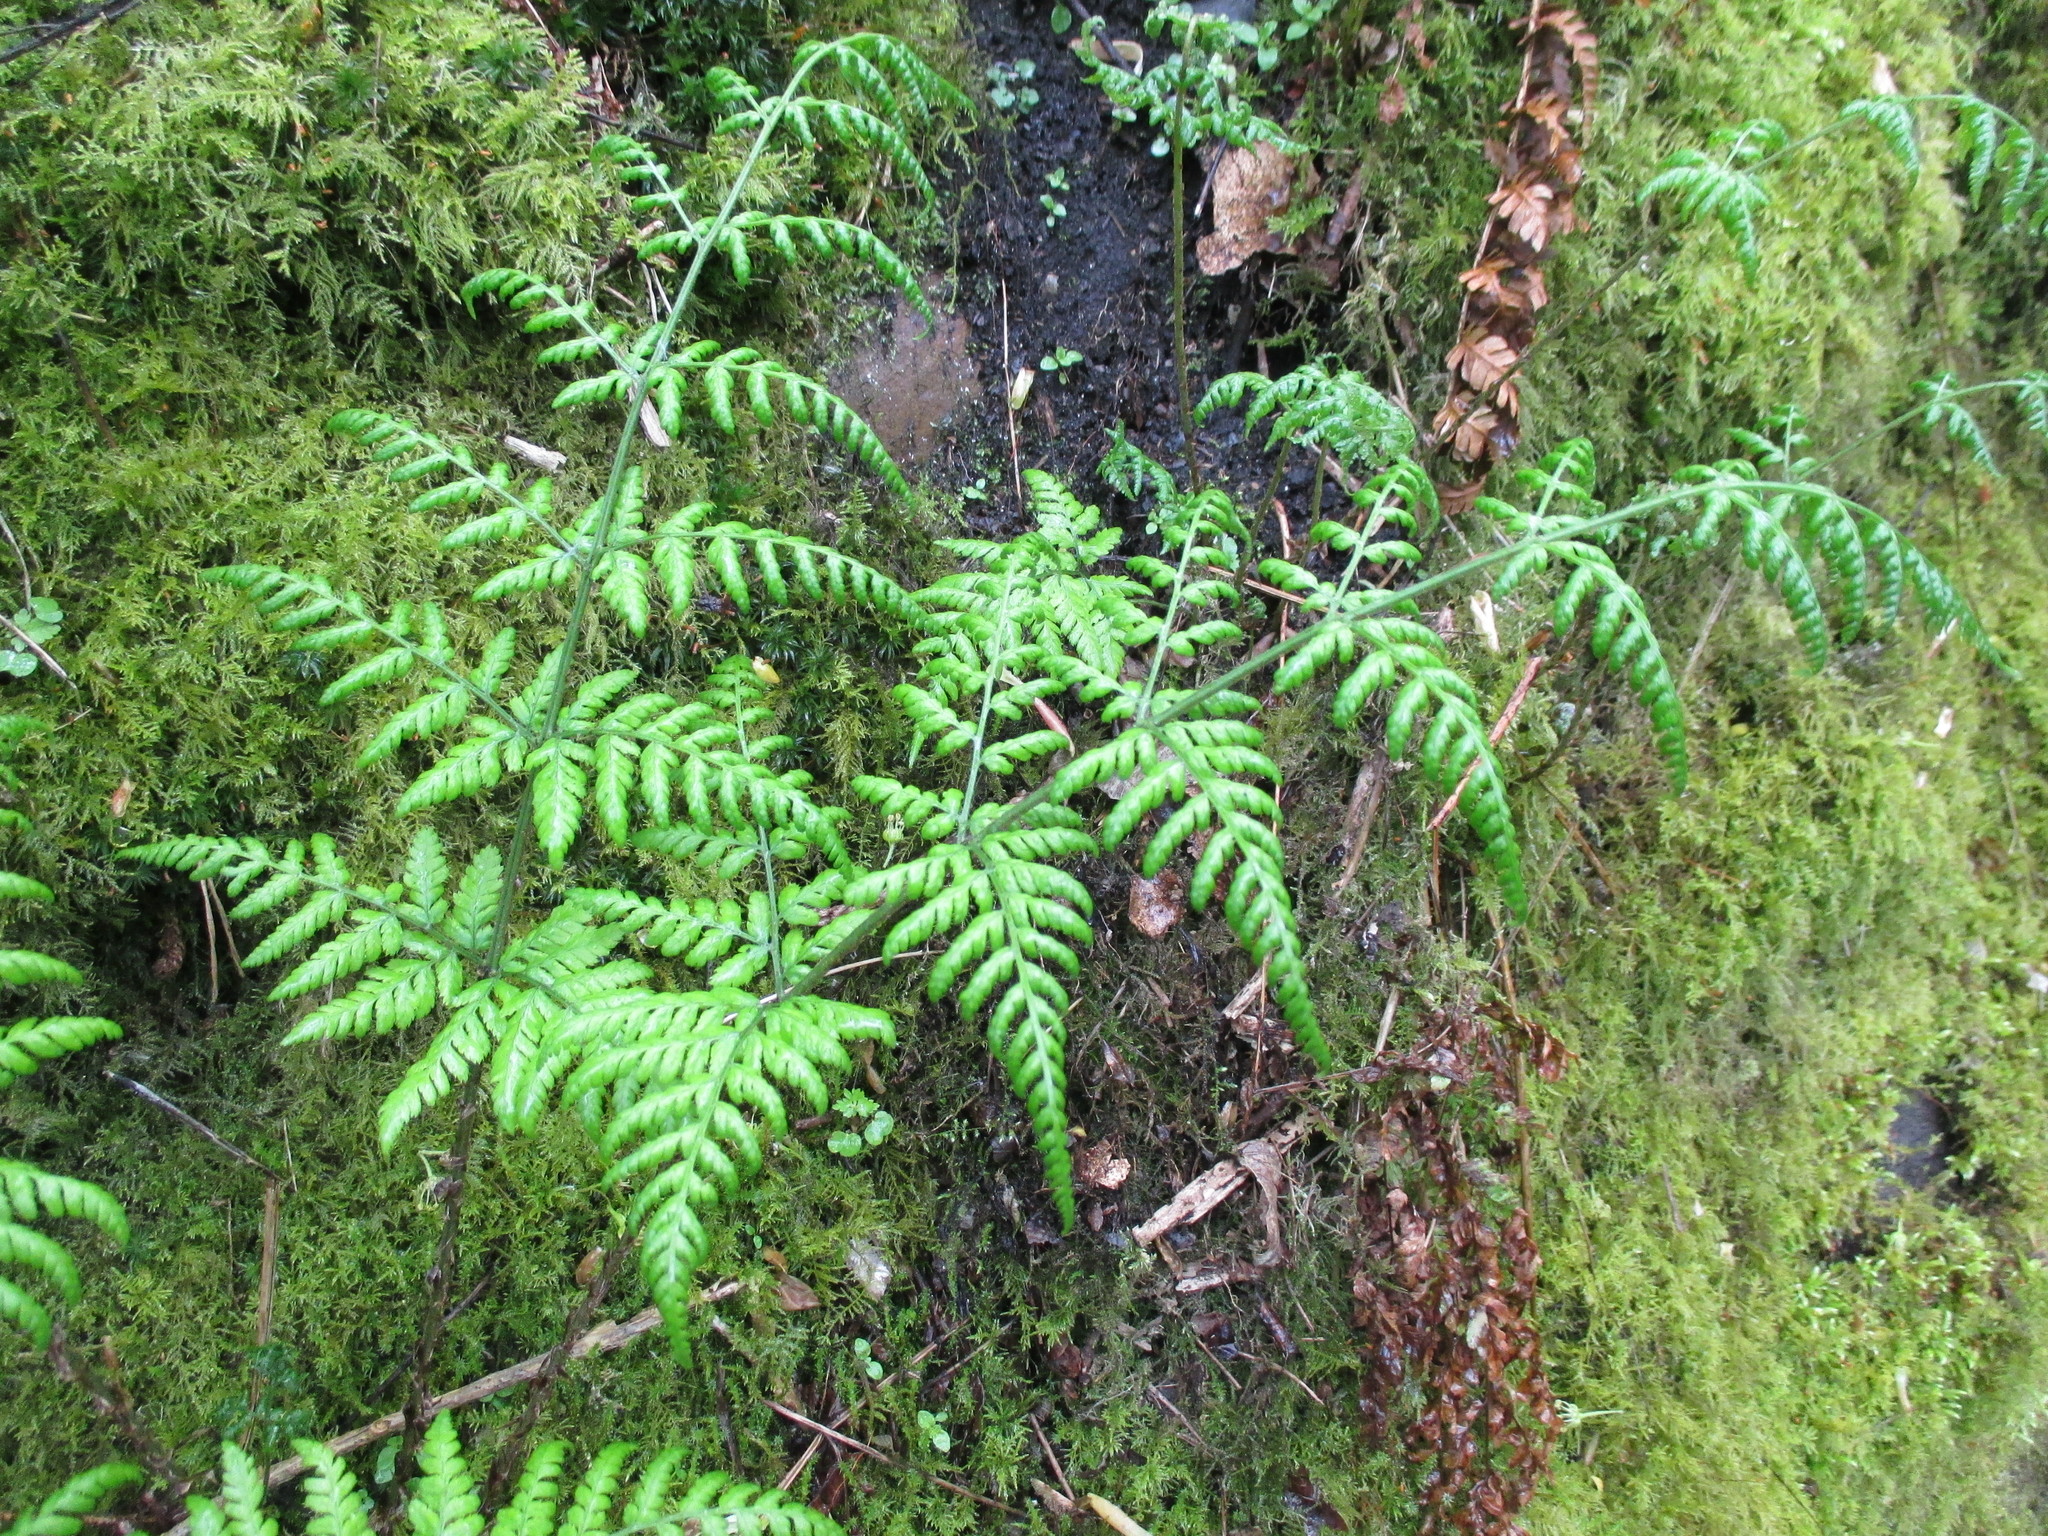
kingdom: Plantae
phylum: Tracheophyta
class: Polypodiopsida
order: Polypodiales
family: Dryopteridaceae
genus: Dryopteris
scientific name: Dryopteris dilatata
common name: Broad buckler-fern
